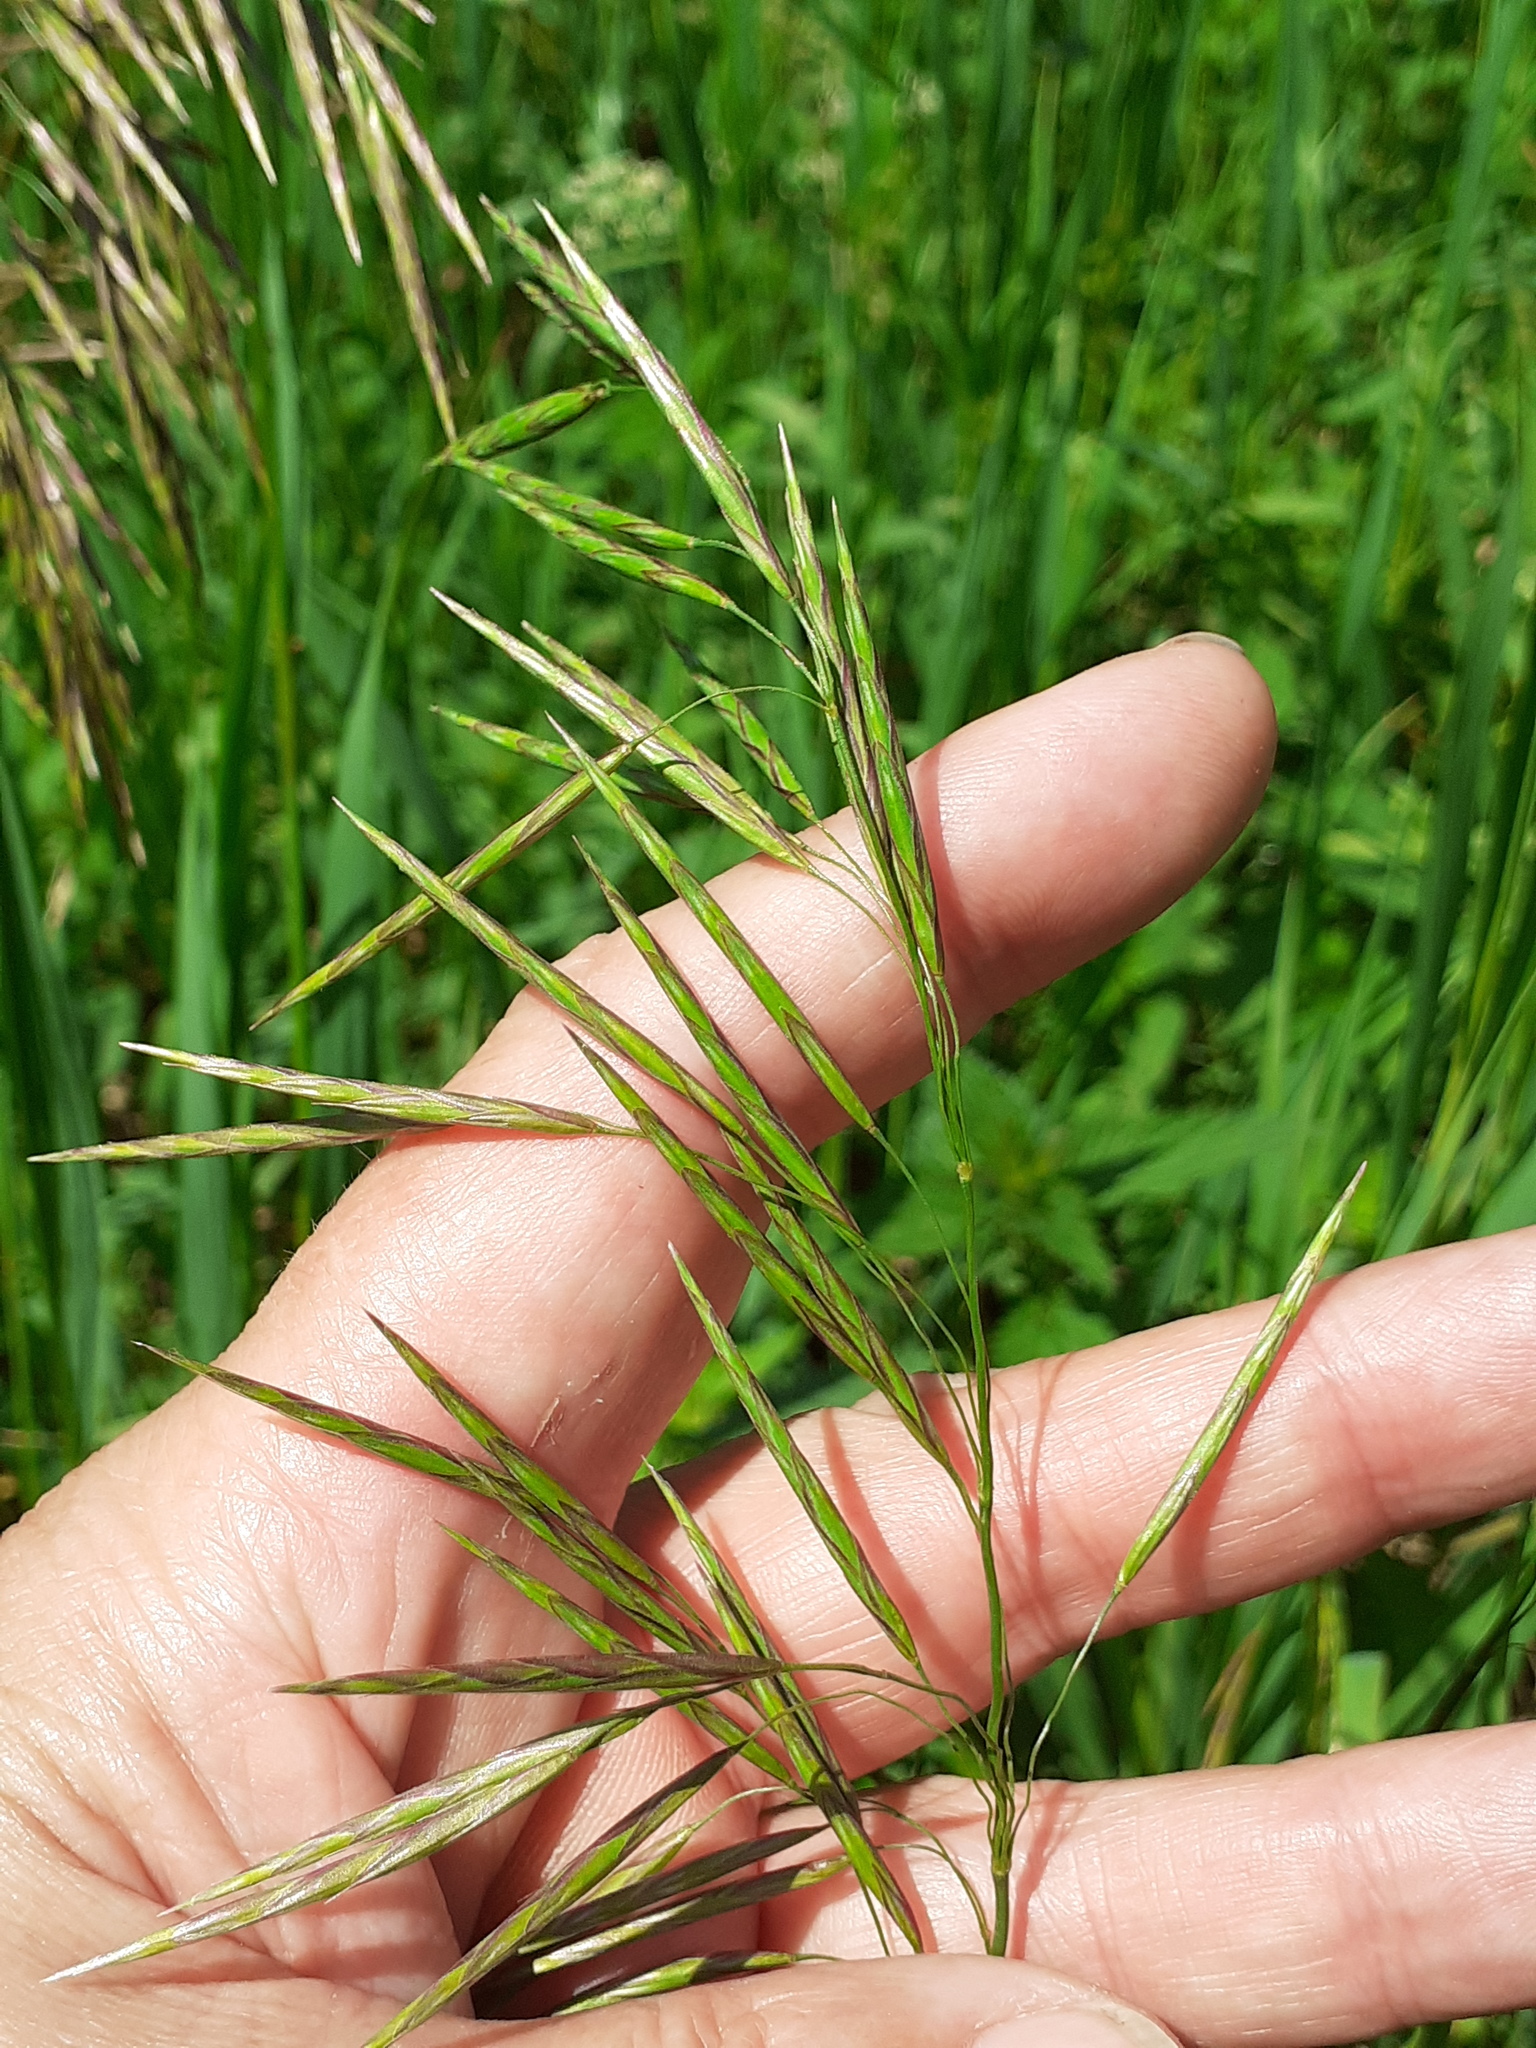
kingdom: Plantae
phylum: Tracheophyta
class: Liliopsida
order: Poales
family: Poaceae
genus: Bromus
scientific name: Bromus inermis
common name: Smooth brome
